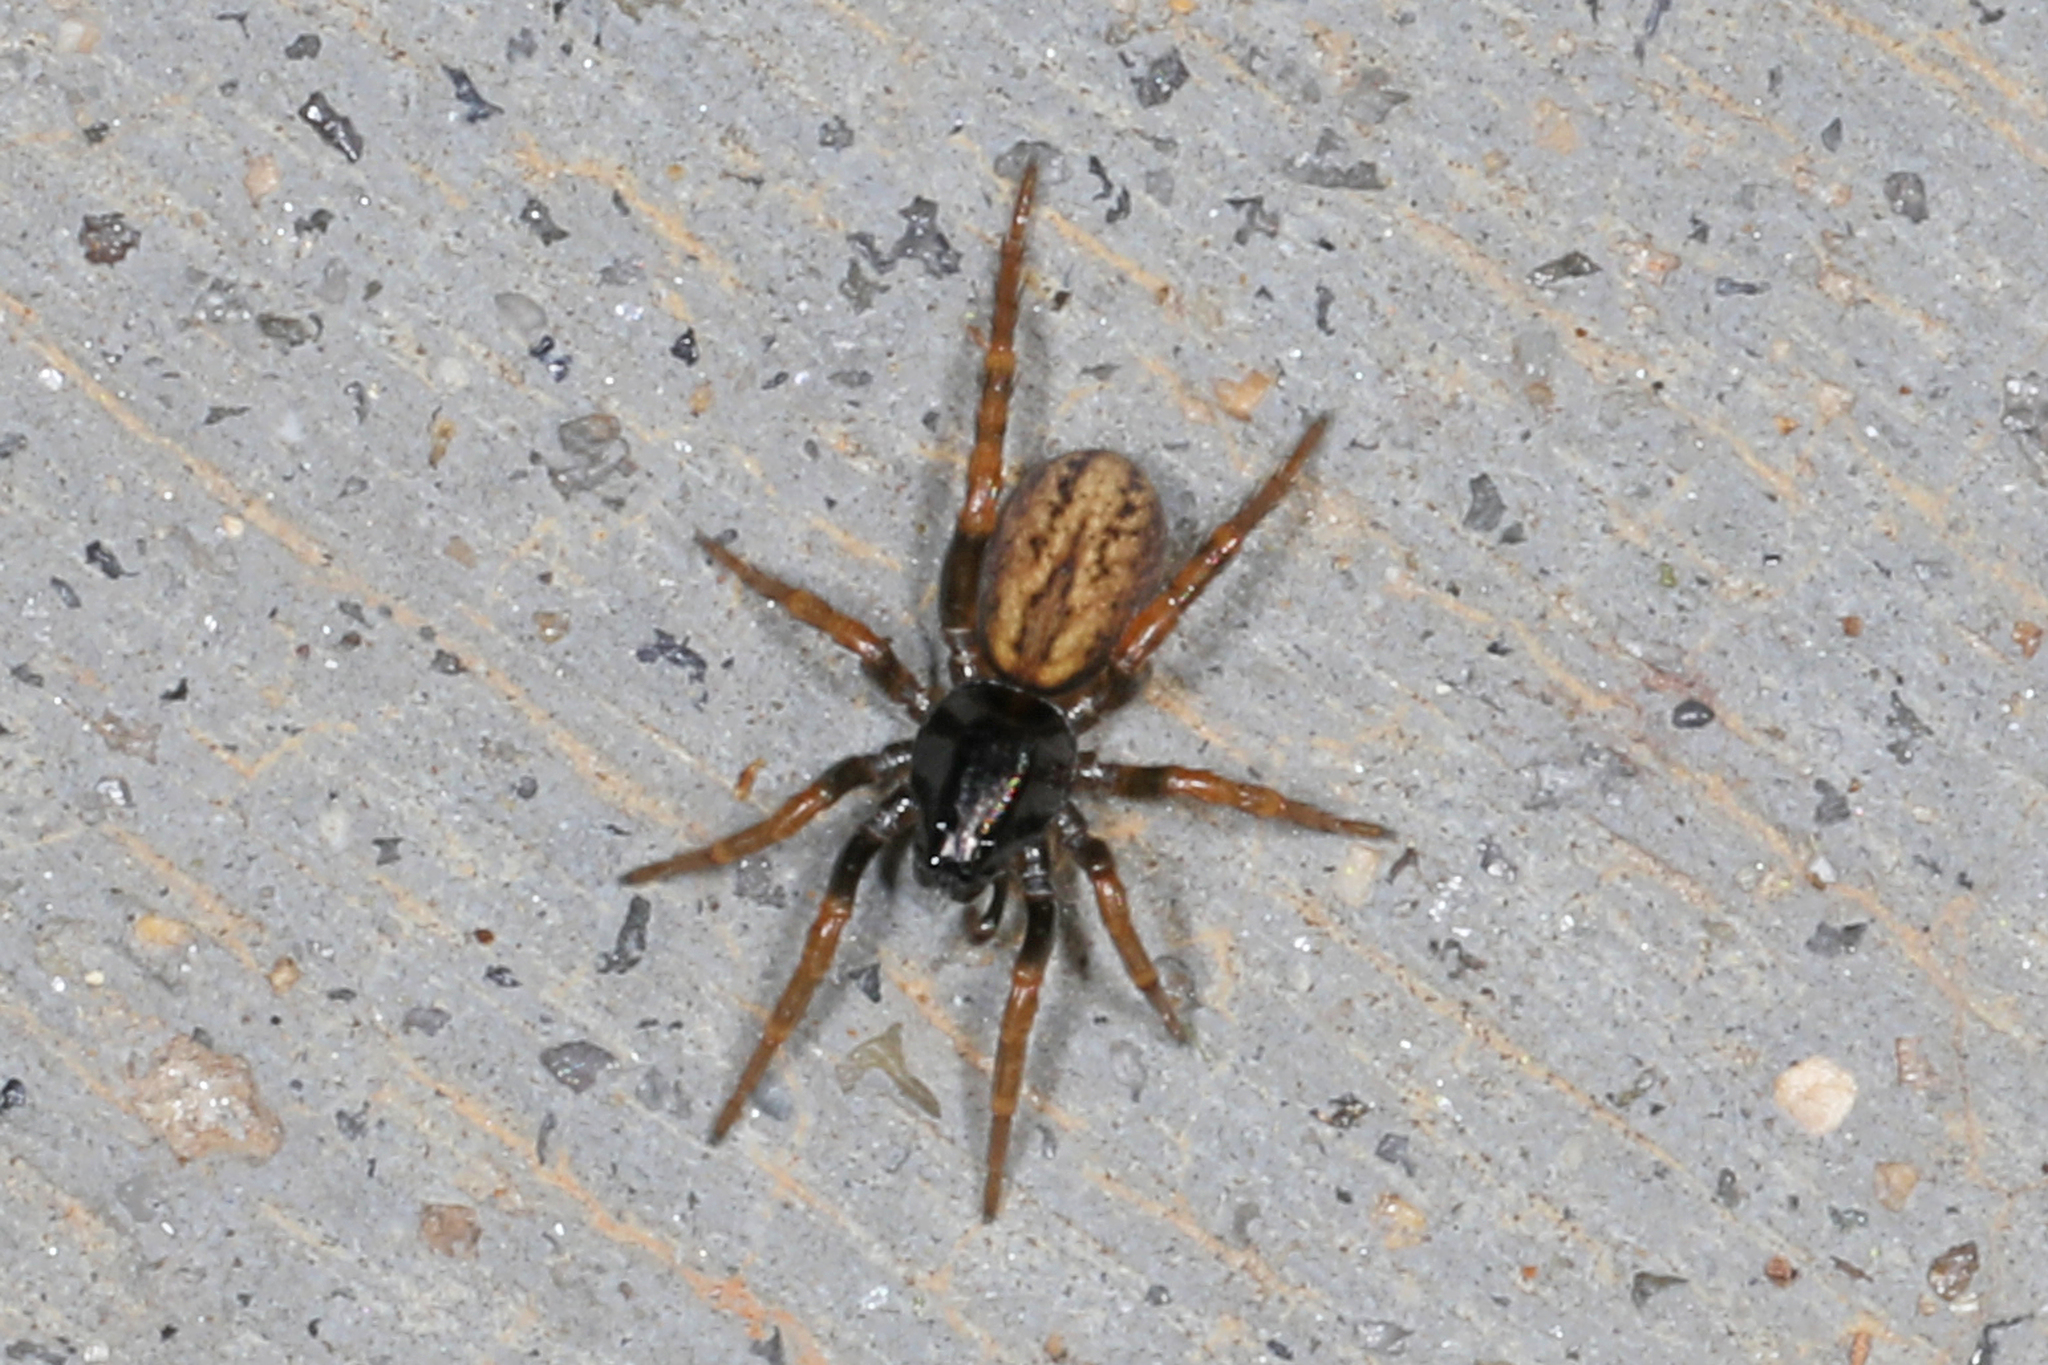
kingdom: Animalia
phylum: Arthropoda
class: Arachnida
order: Araneae
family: Lycosidae
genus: Allocosa
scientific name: Allocosa funerea
